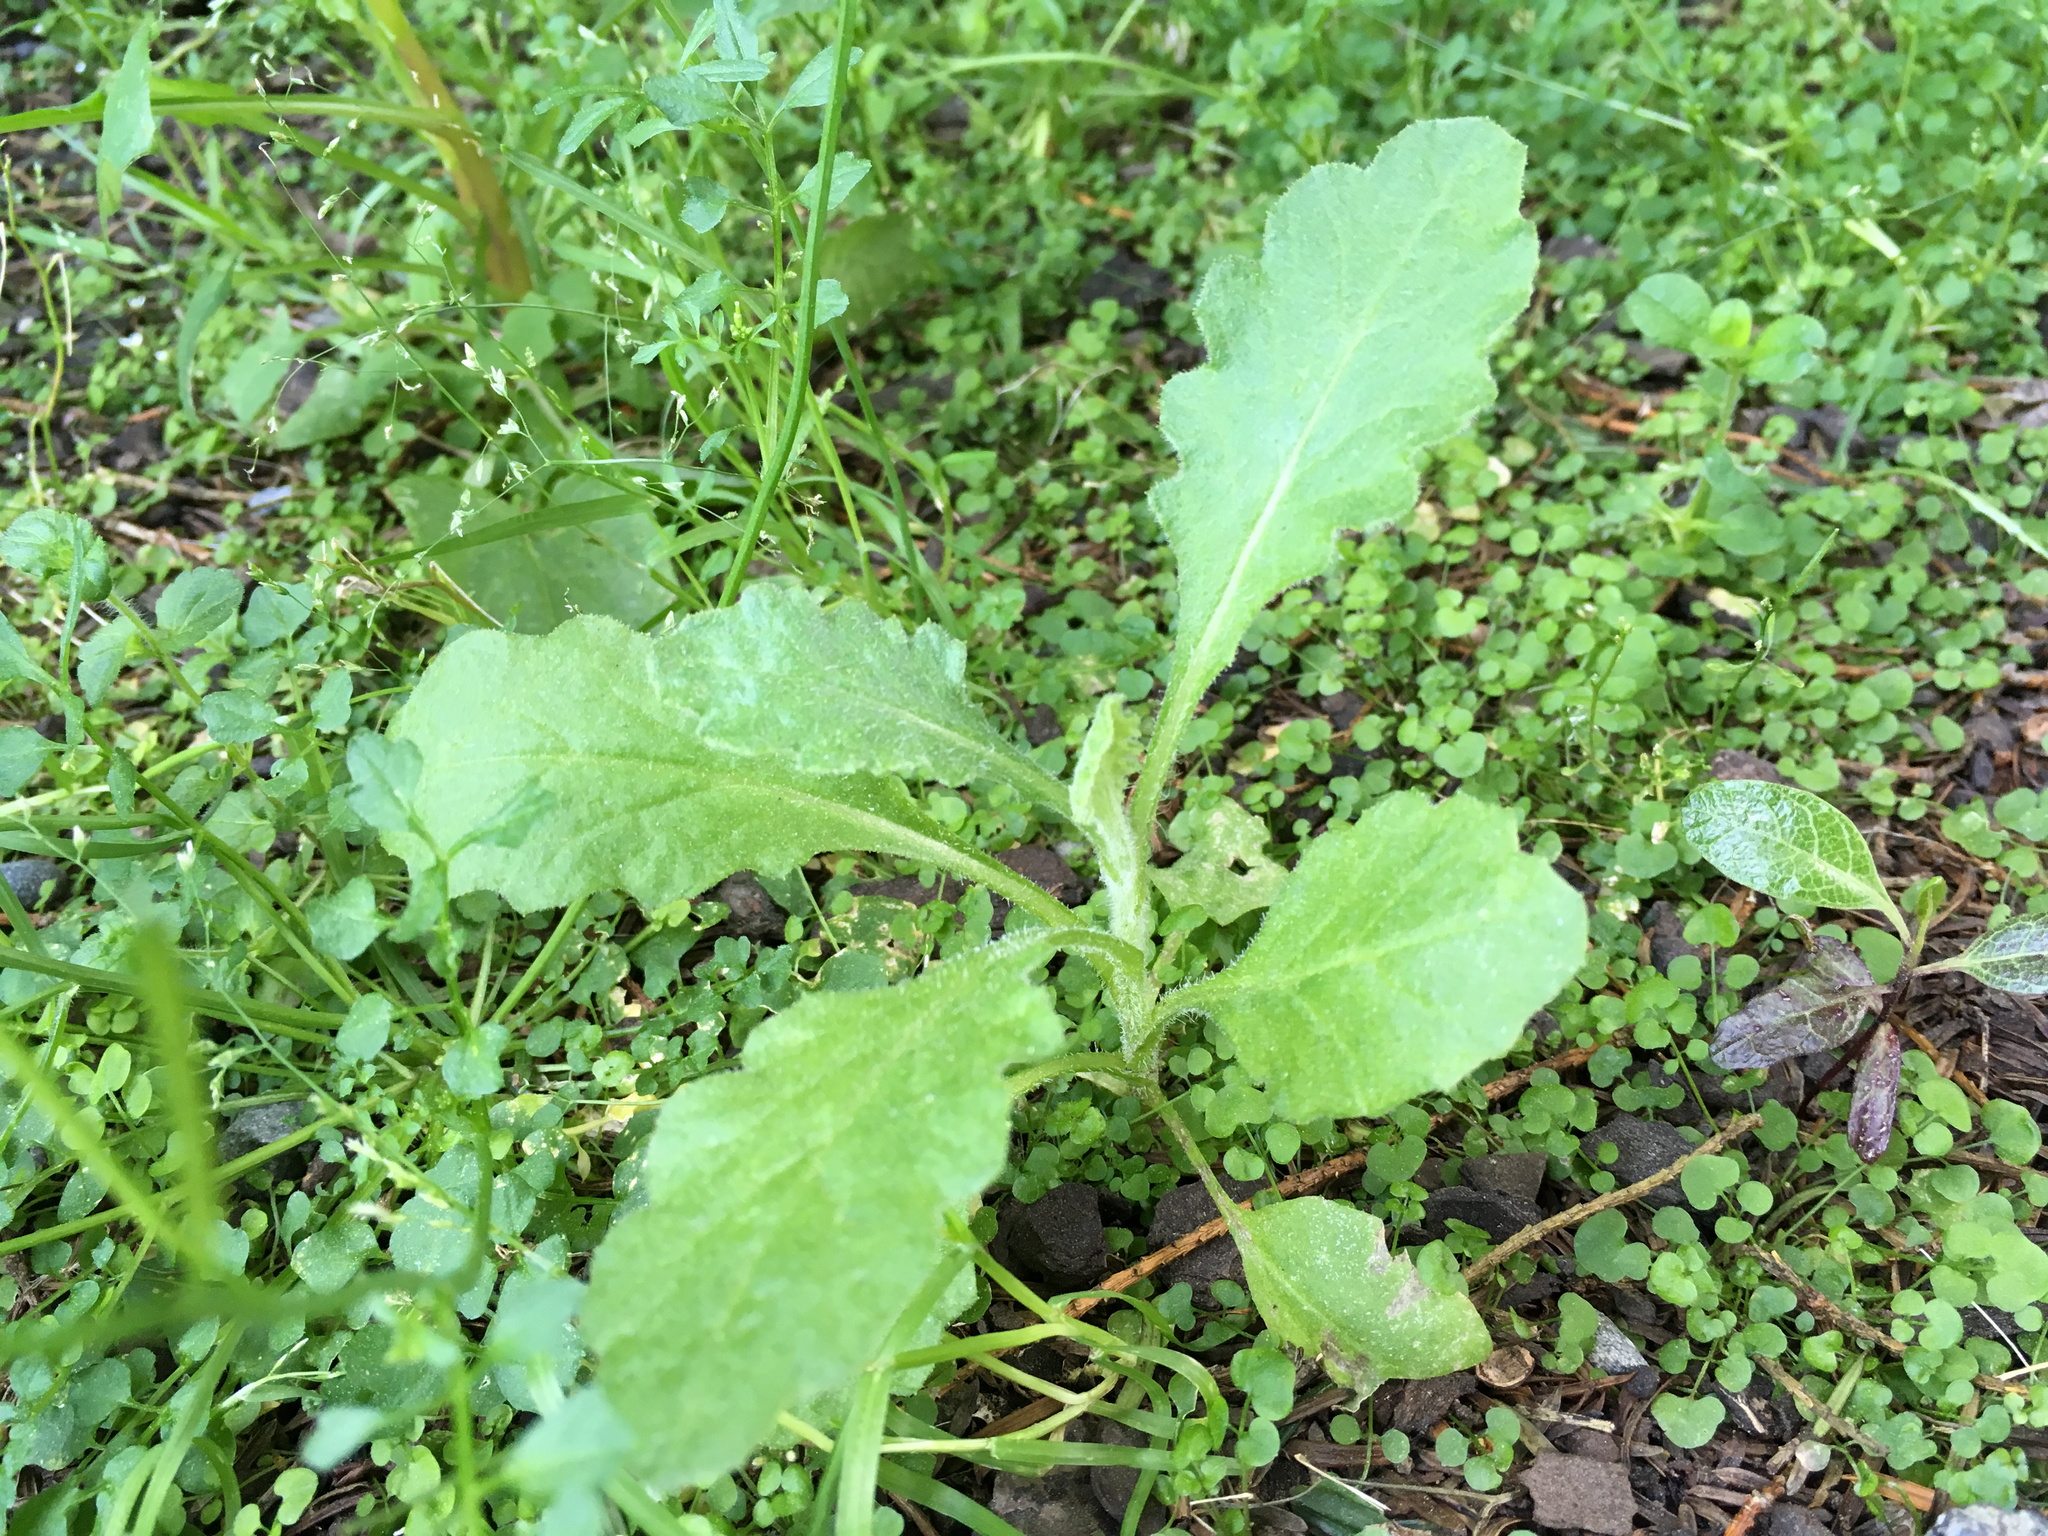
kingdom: Plantae
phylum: Tracheophyta
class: Magnoliopsida
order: Asterales
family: Asteraceae
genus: Senecio
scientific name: Senecio glomeratus
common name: Cutleaf burnweed
